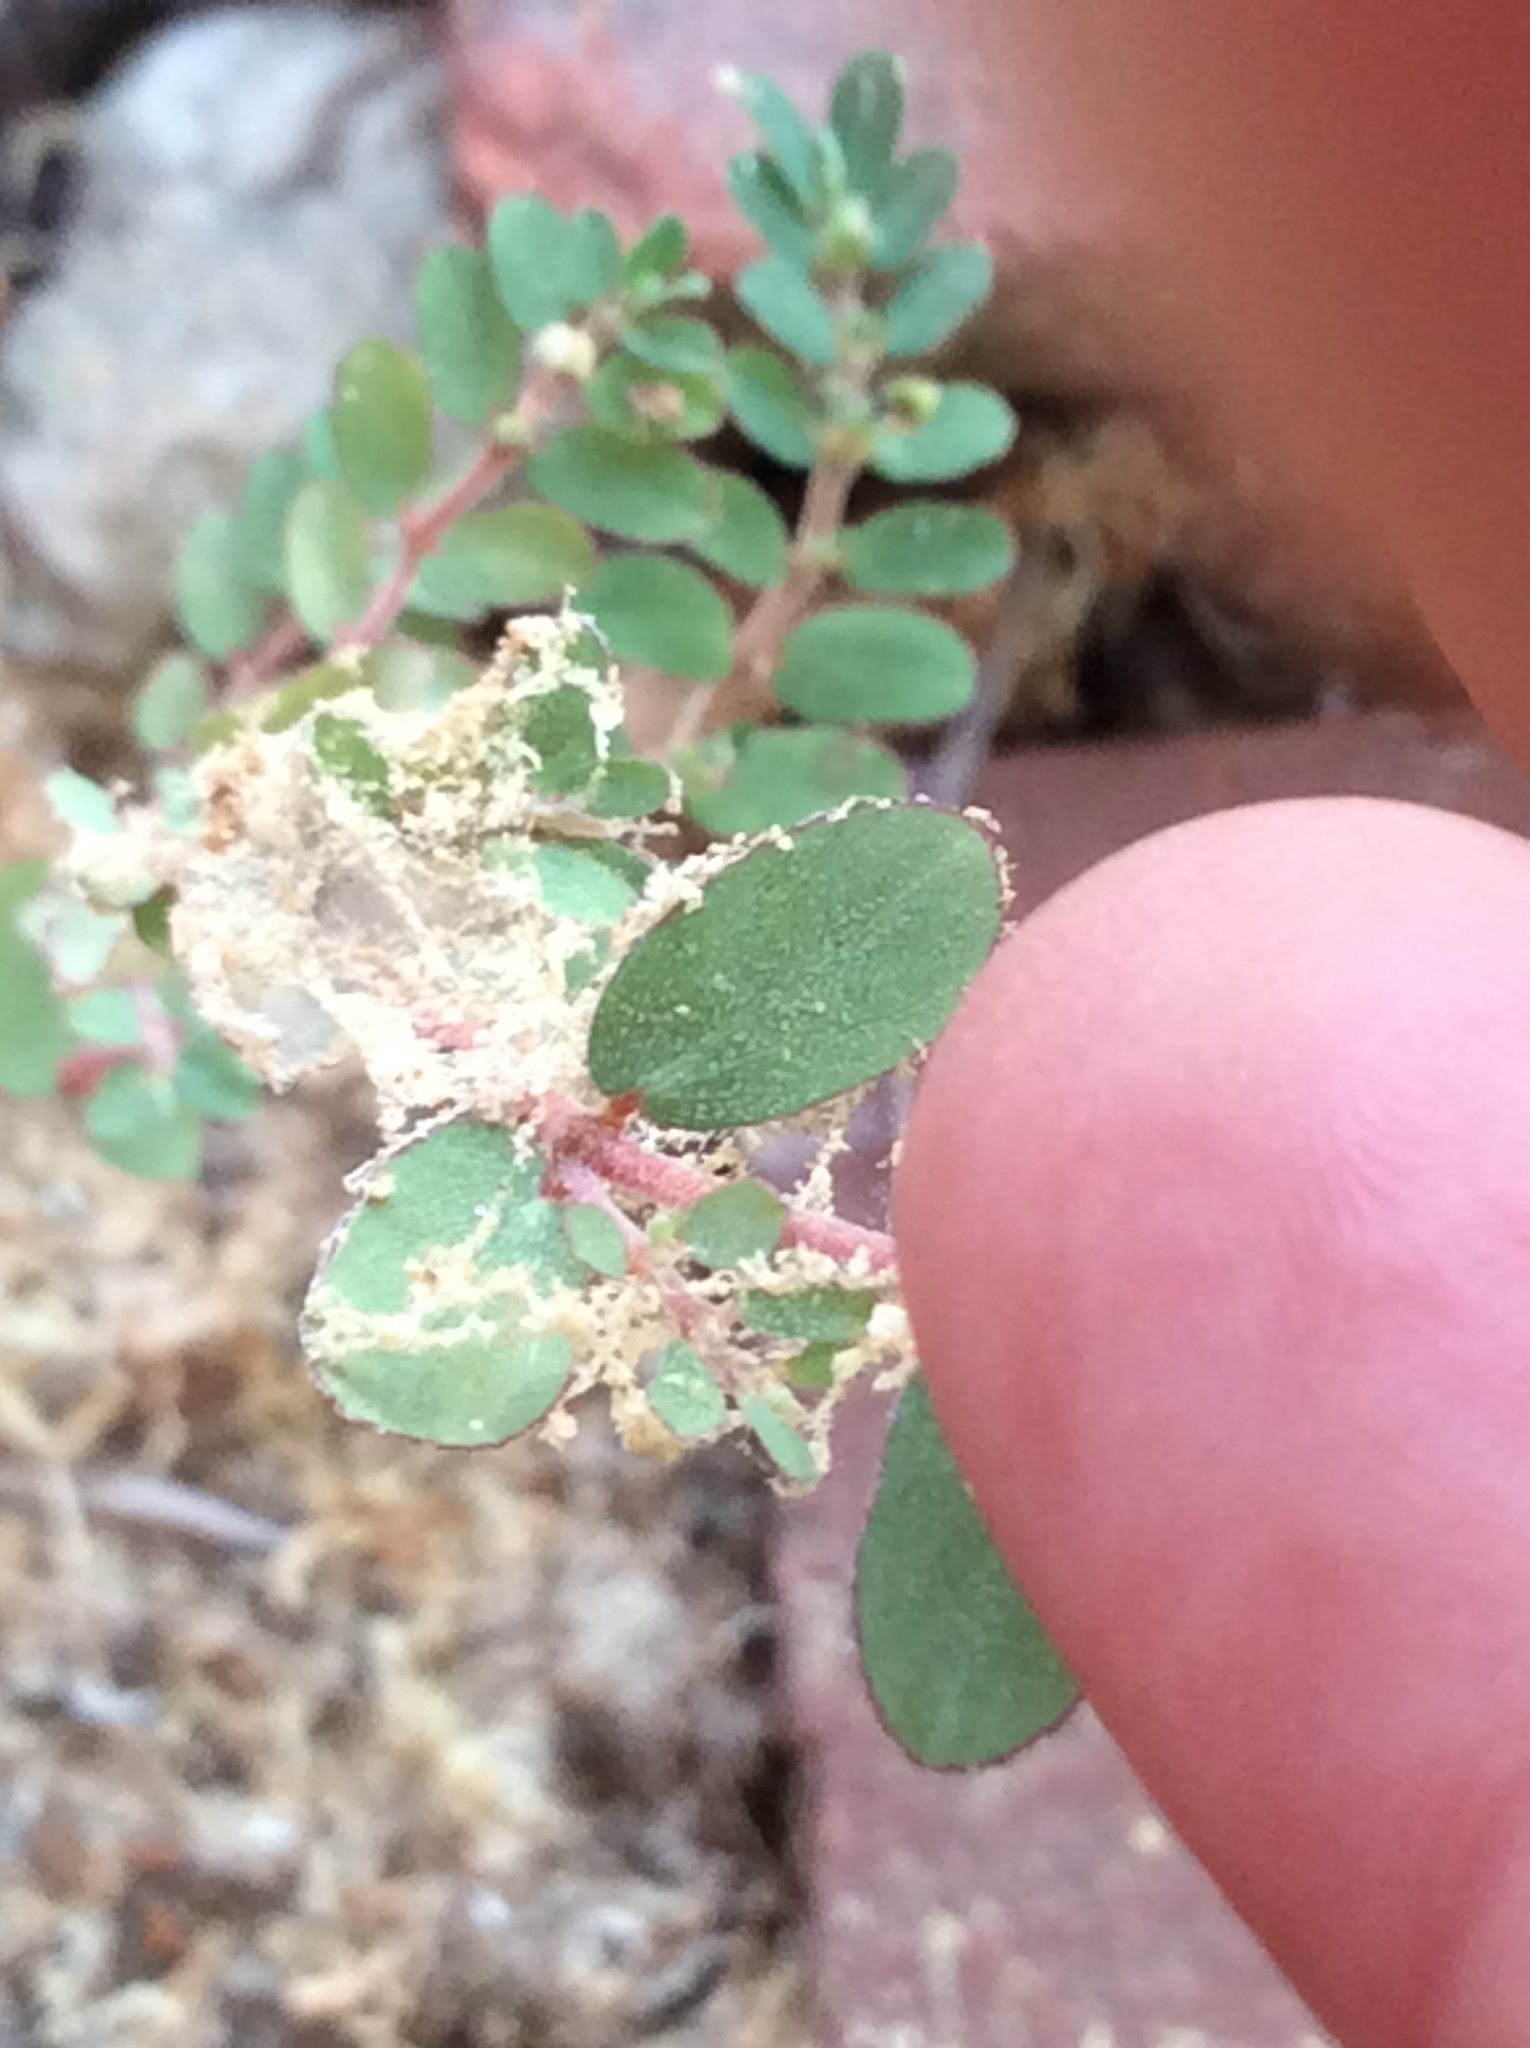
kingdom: Plantae
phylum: Tracheophyta
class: Magnoliopsida
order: Malpighiales
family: Euphorbiaceae
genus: Euphorbia
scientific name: Euphorbia prostrata
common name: Prostrate sandmat
